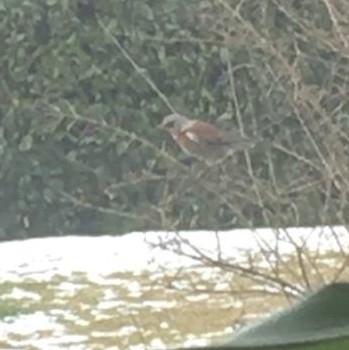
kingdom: Animalia
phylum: Chordata
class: Aves
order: Passeriformes
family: Turdidae
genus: Turdus
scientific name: Turdus pilaris
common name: Fieldfare
